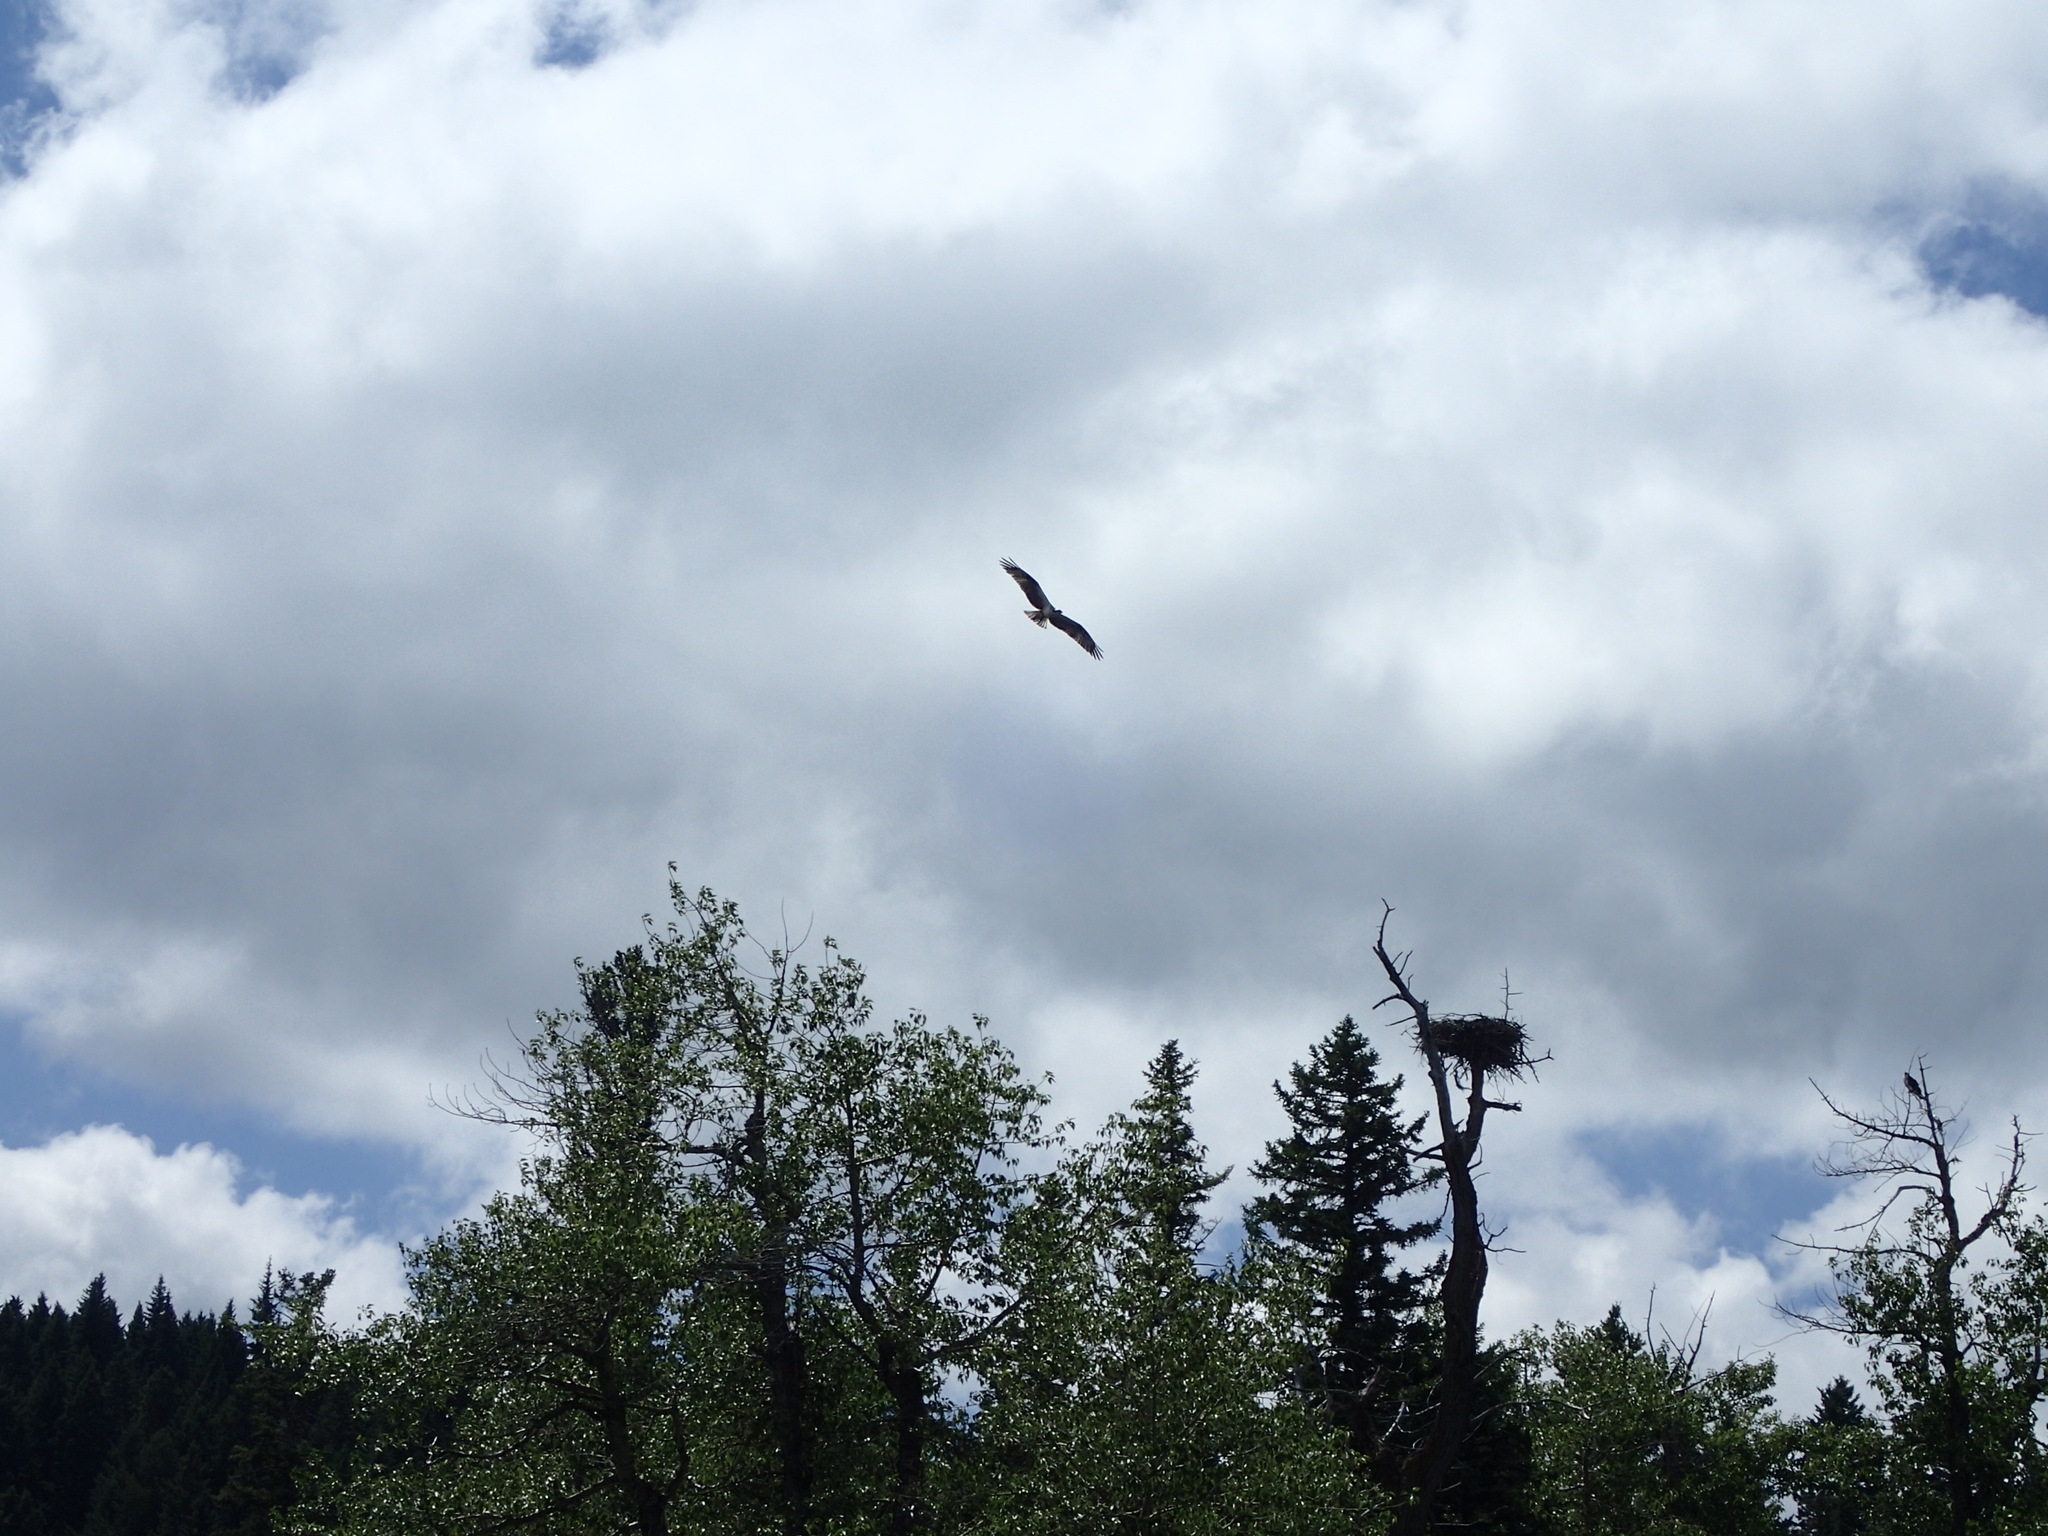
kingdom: Animalia
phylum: Chordata
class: Aves
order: Accipitriformes
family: Pandionidae
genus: Pandion
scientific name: Pandion haliaetus
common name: Osprey
